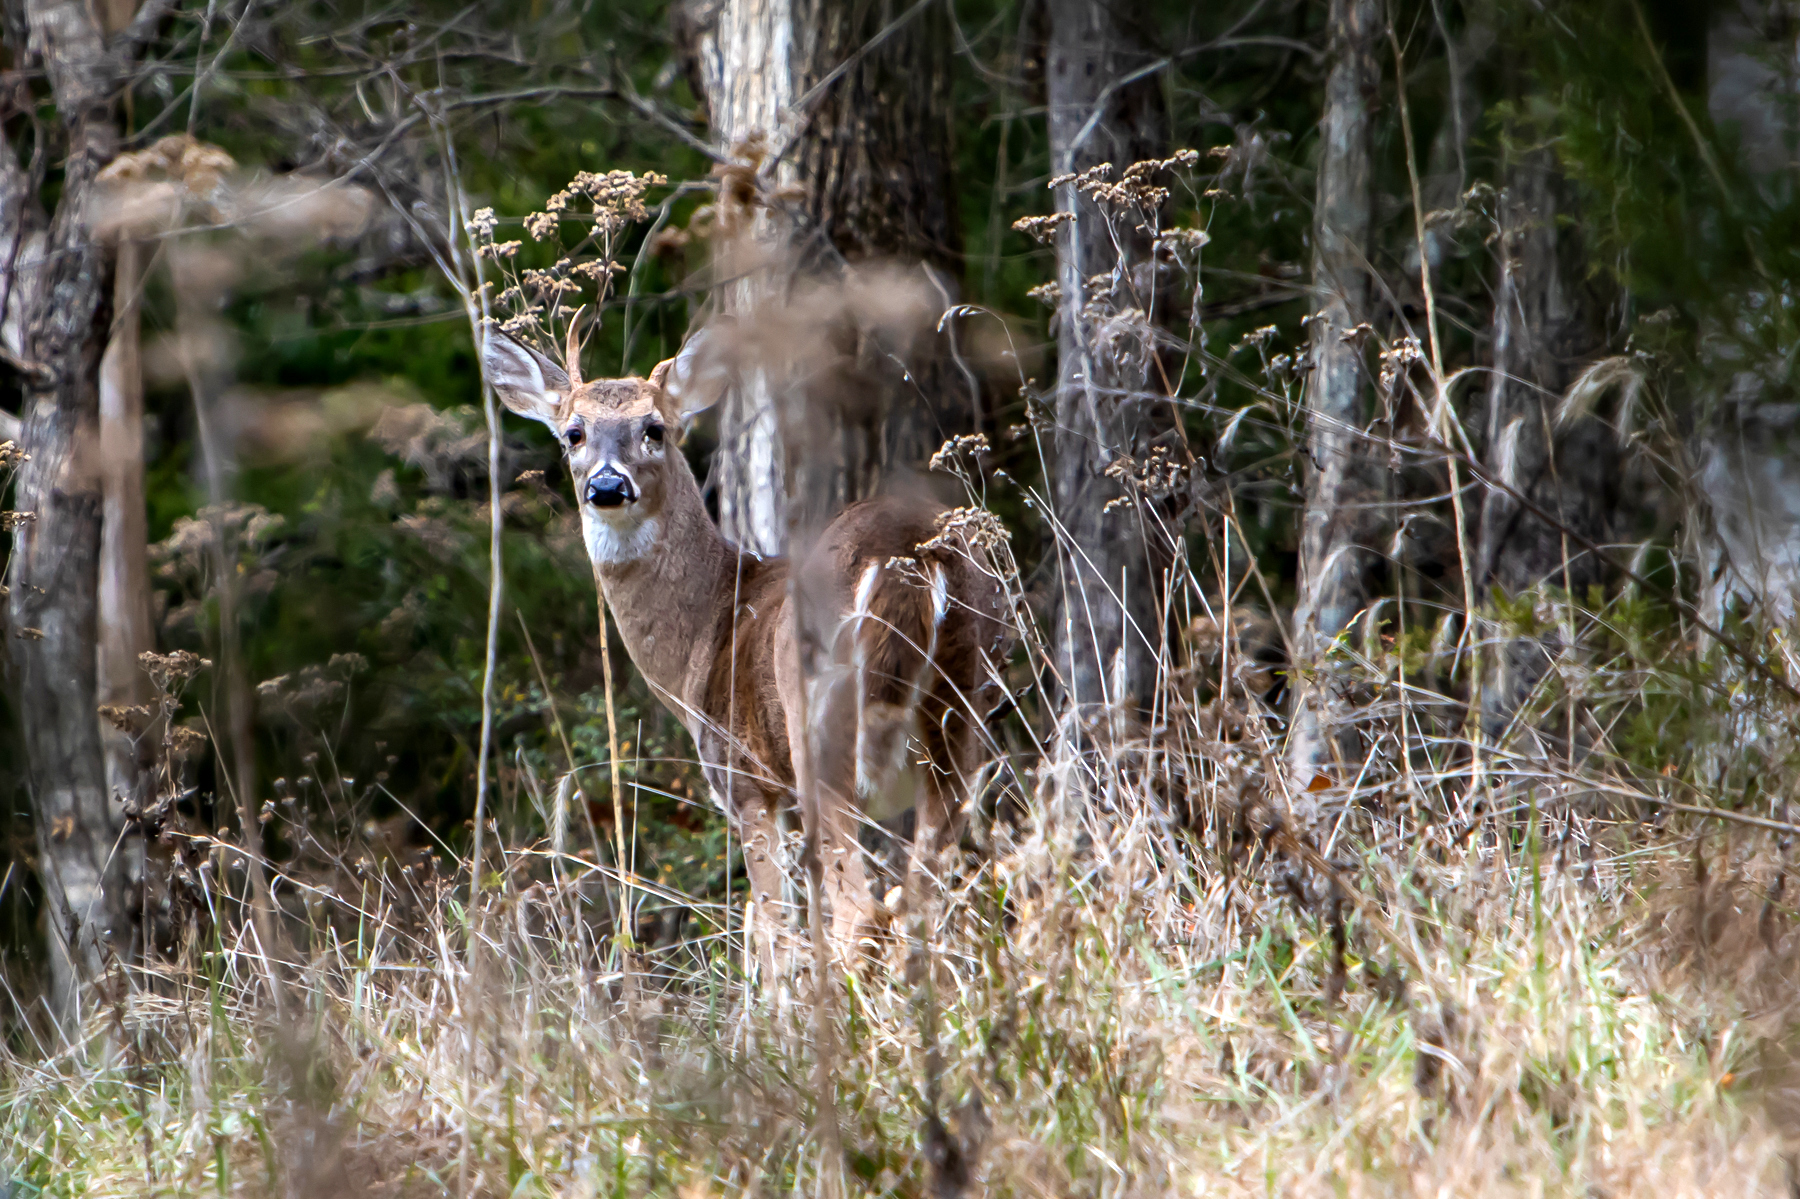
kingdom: Animalia
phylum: Chordata
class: Mammalia
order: Artiodactyla
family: Cervidae
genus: Odocoileus
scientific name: Odocoileus virginianus
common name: White-tailed deer
